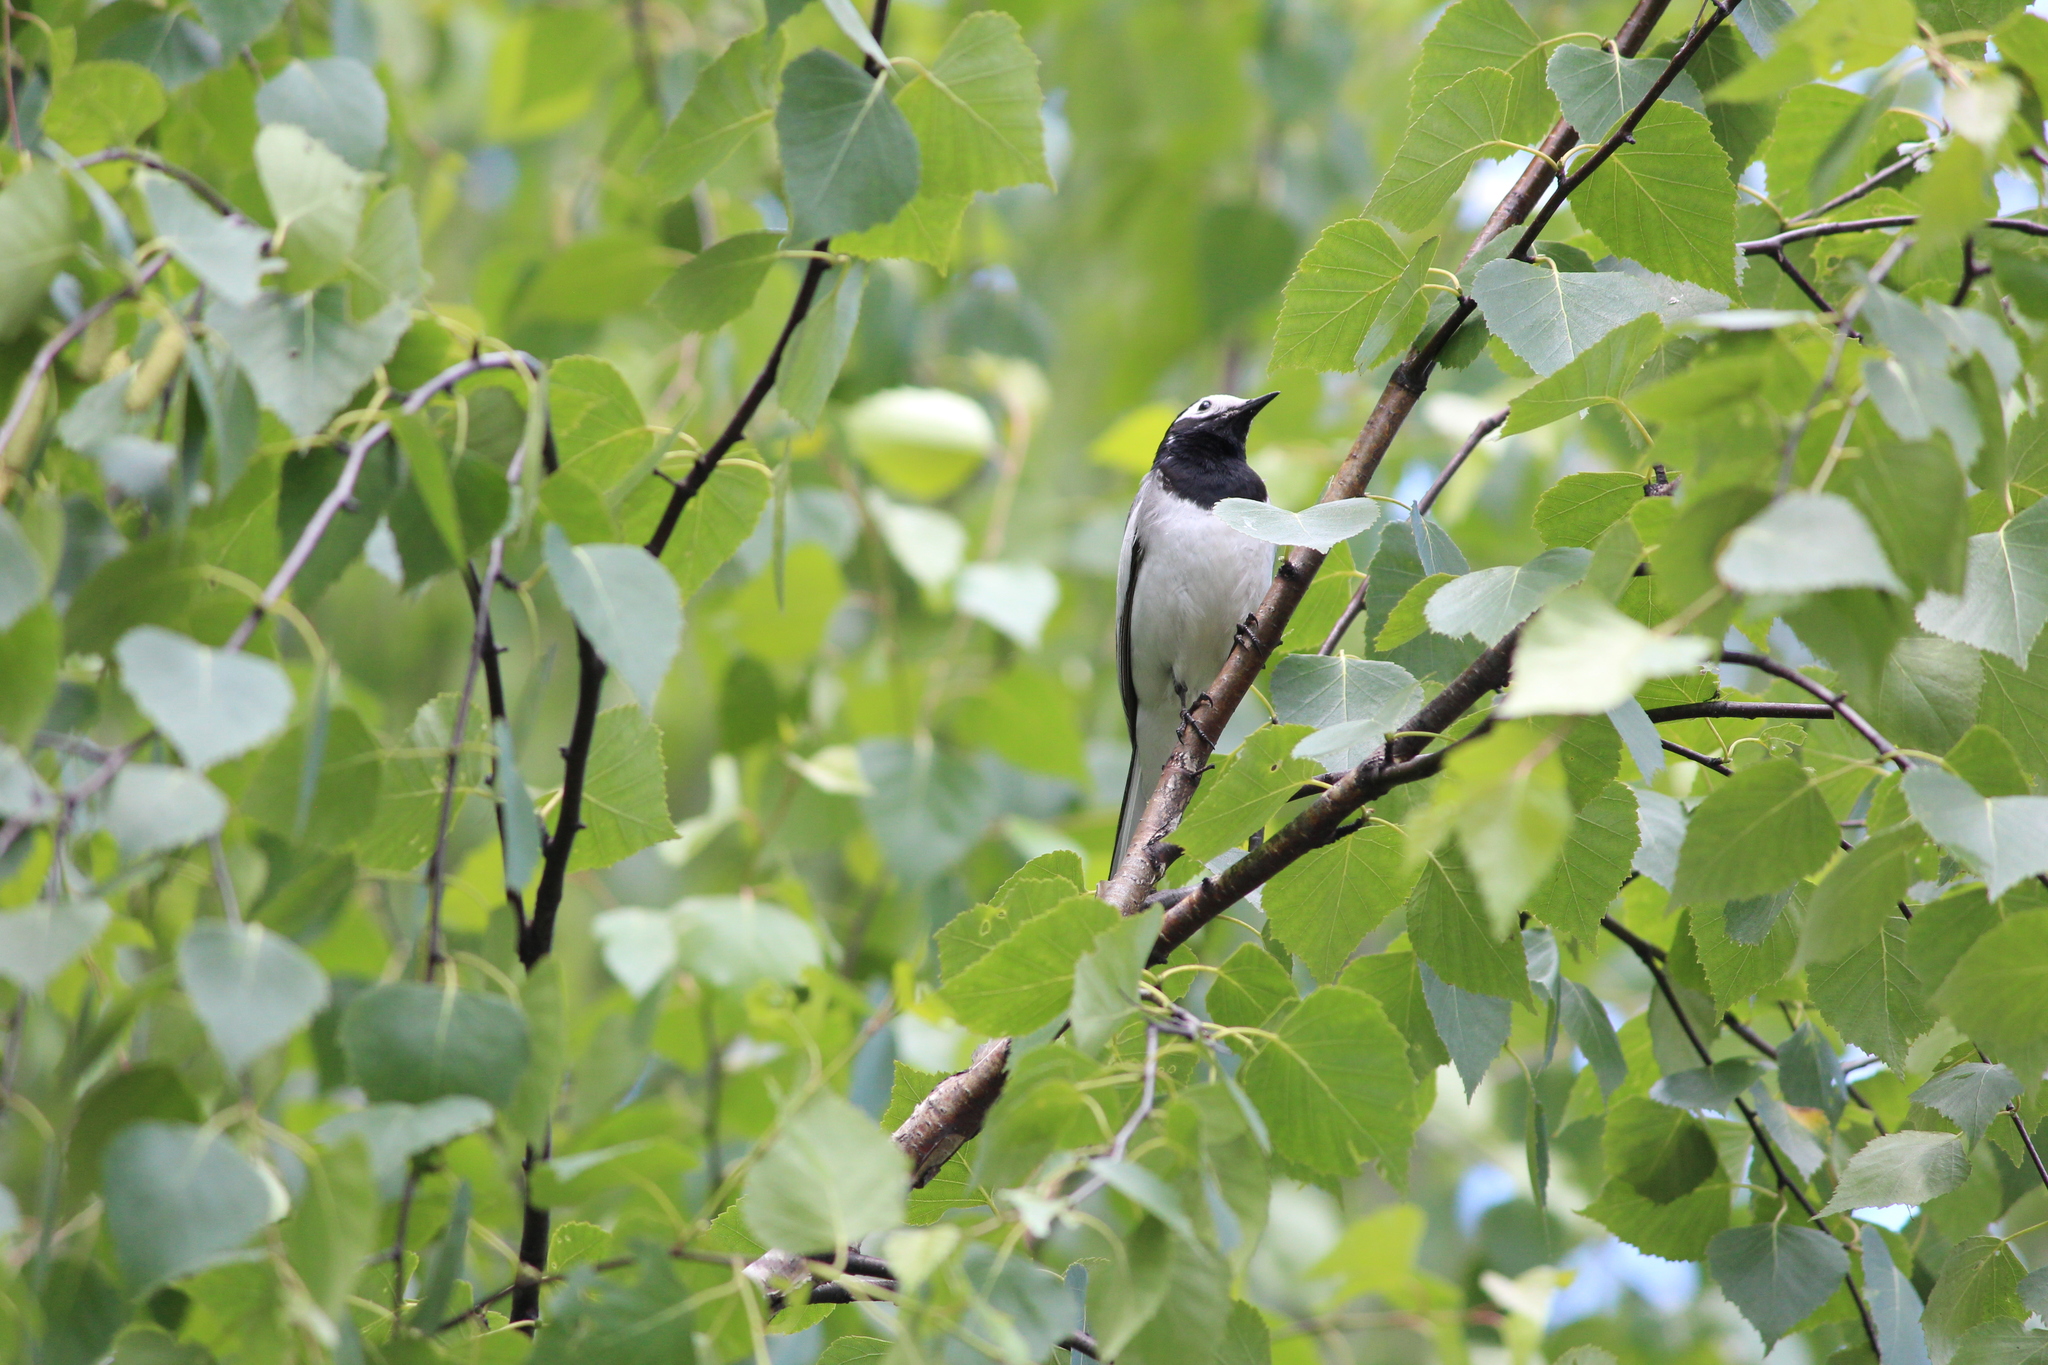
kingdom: Animalia
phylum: Chordata
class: Aves
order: Passeriformes
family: Motacillidae
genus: Motacilla
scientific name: Motacilla alba
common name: White wagtail
